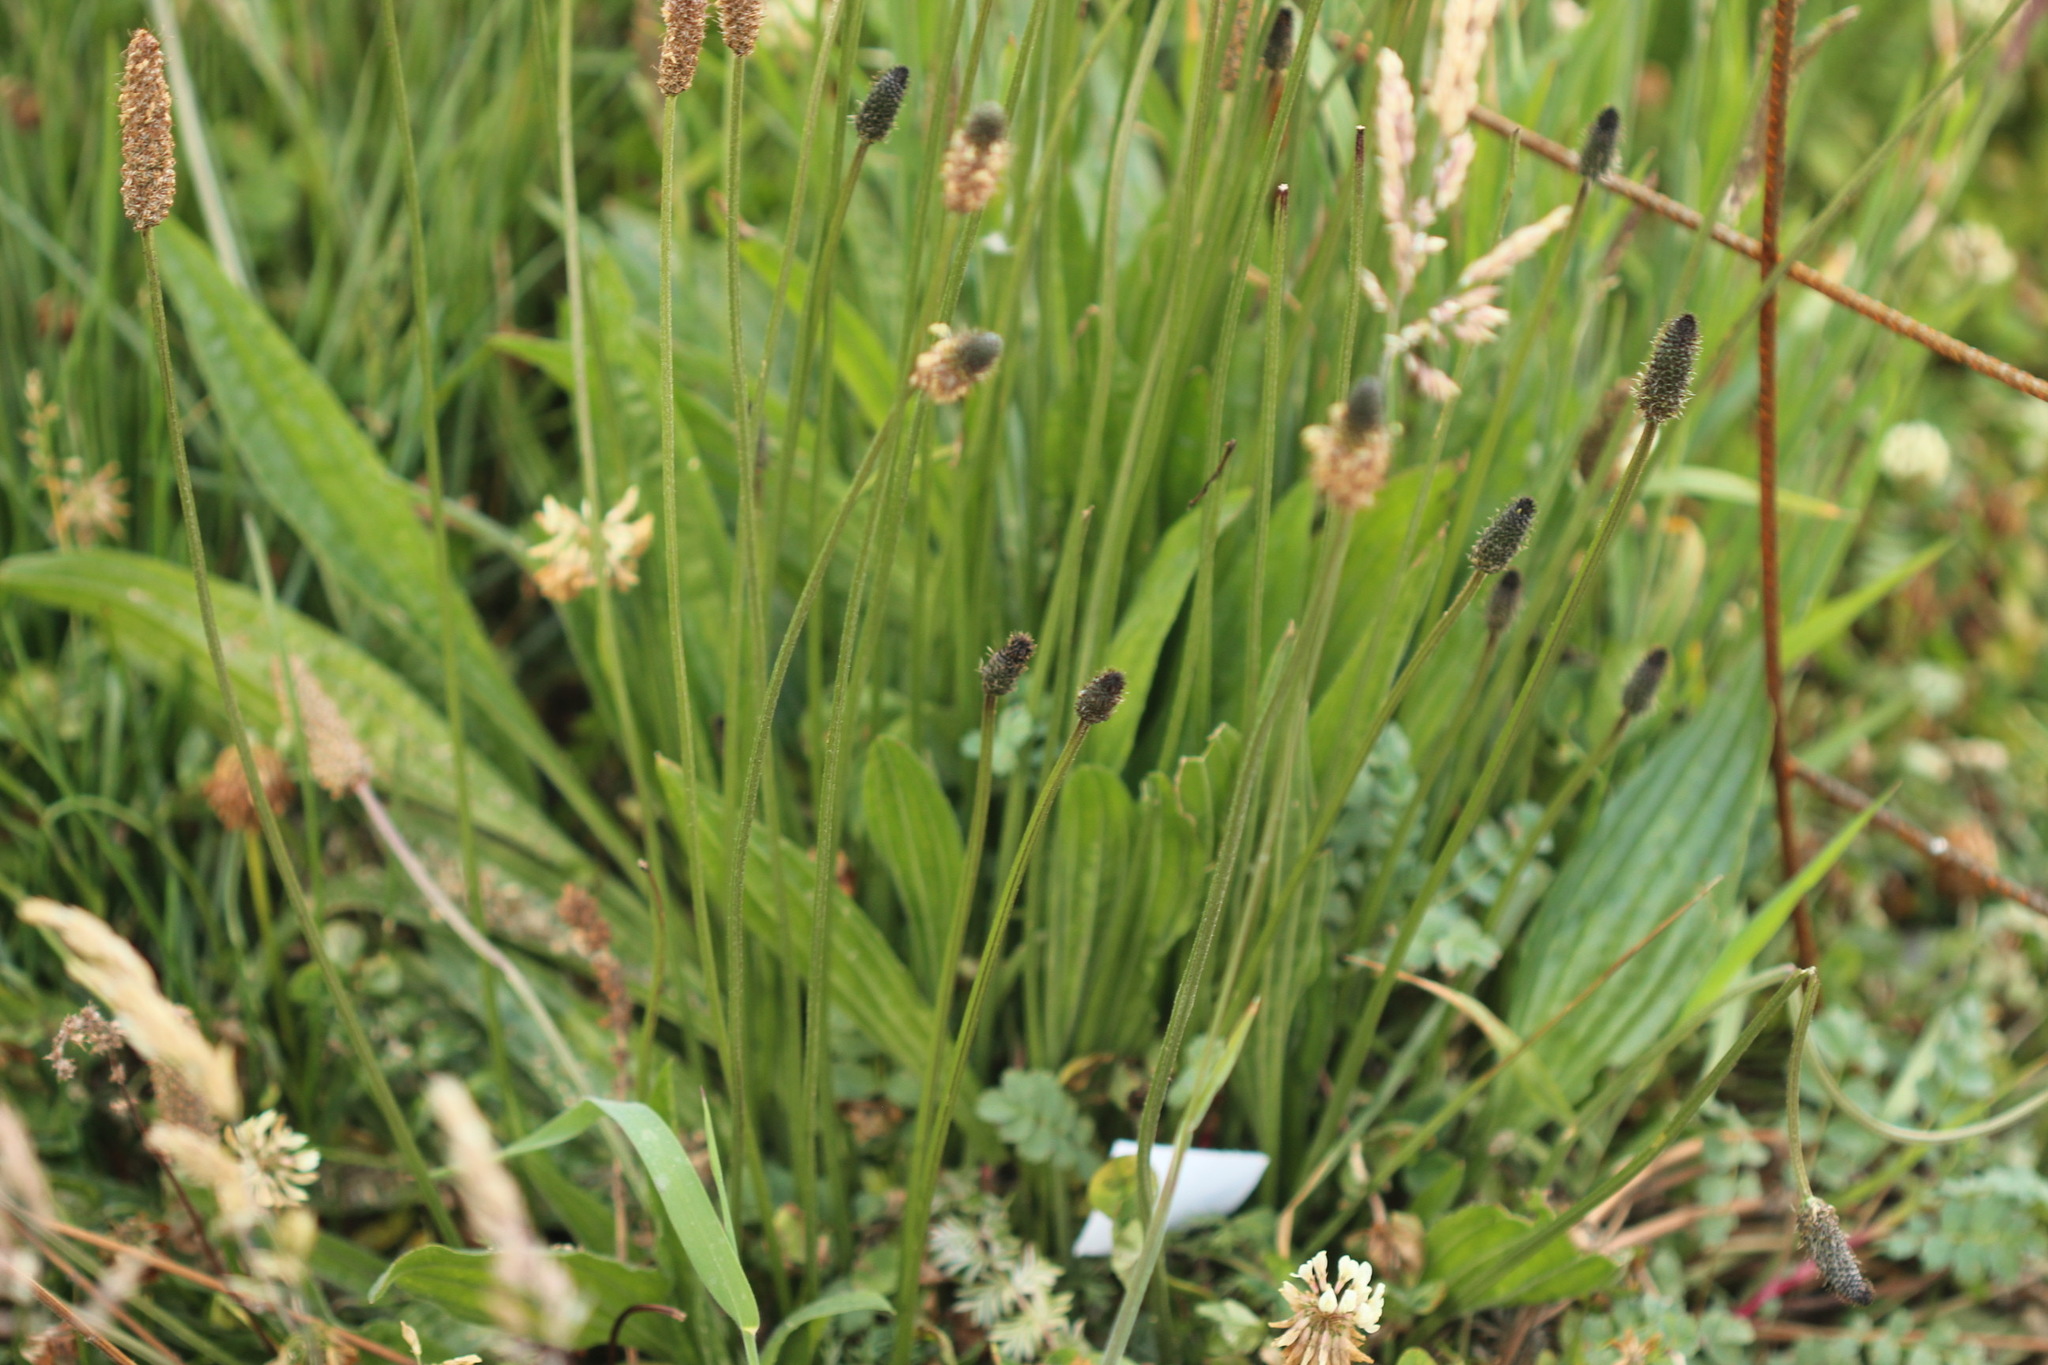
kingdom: Plantae
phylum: Tracheophyta
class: Magnoliopsida
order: Lamiales
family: Plantaginaceae
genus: Plantago
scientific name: Plantago lanceolata
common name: Ribwort plantain
